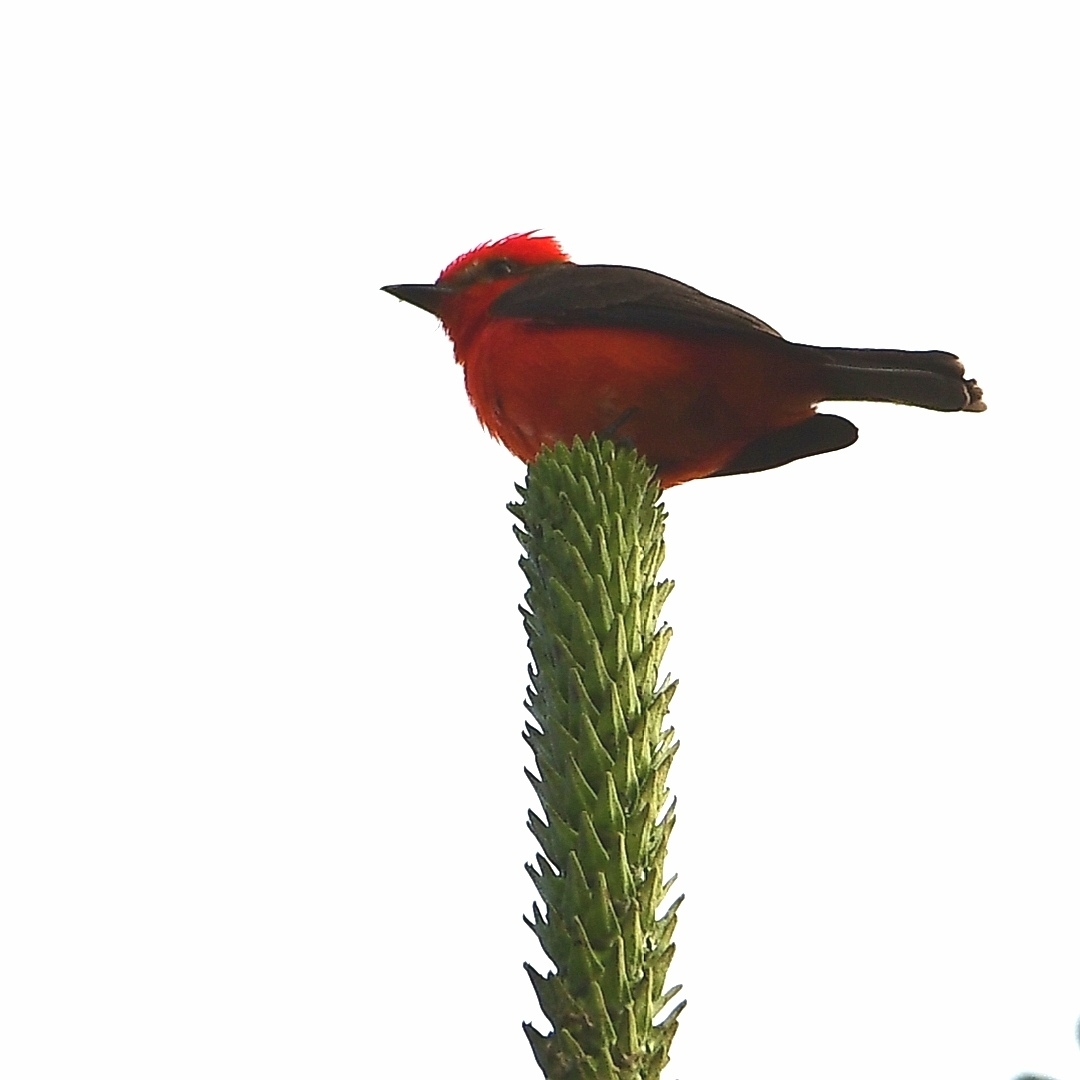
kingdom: Animalia
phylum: Chordata
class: Aves
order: Passeriformes
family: Tyrannidae
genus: Pyrocephalus
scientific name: Pyrocephalus rubinus
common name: Vermilion flycatcher
